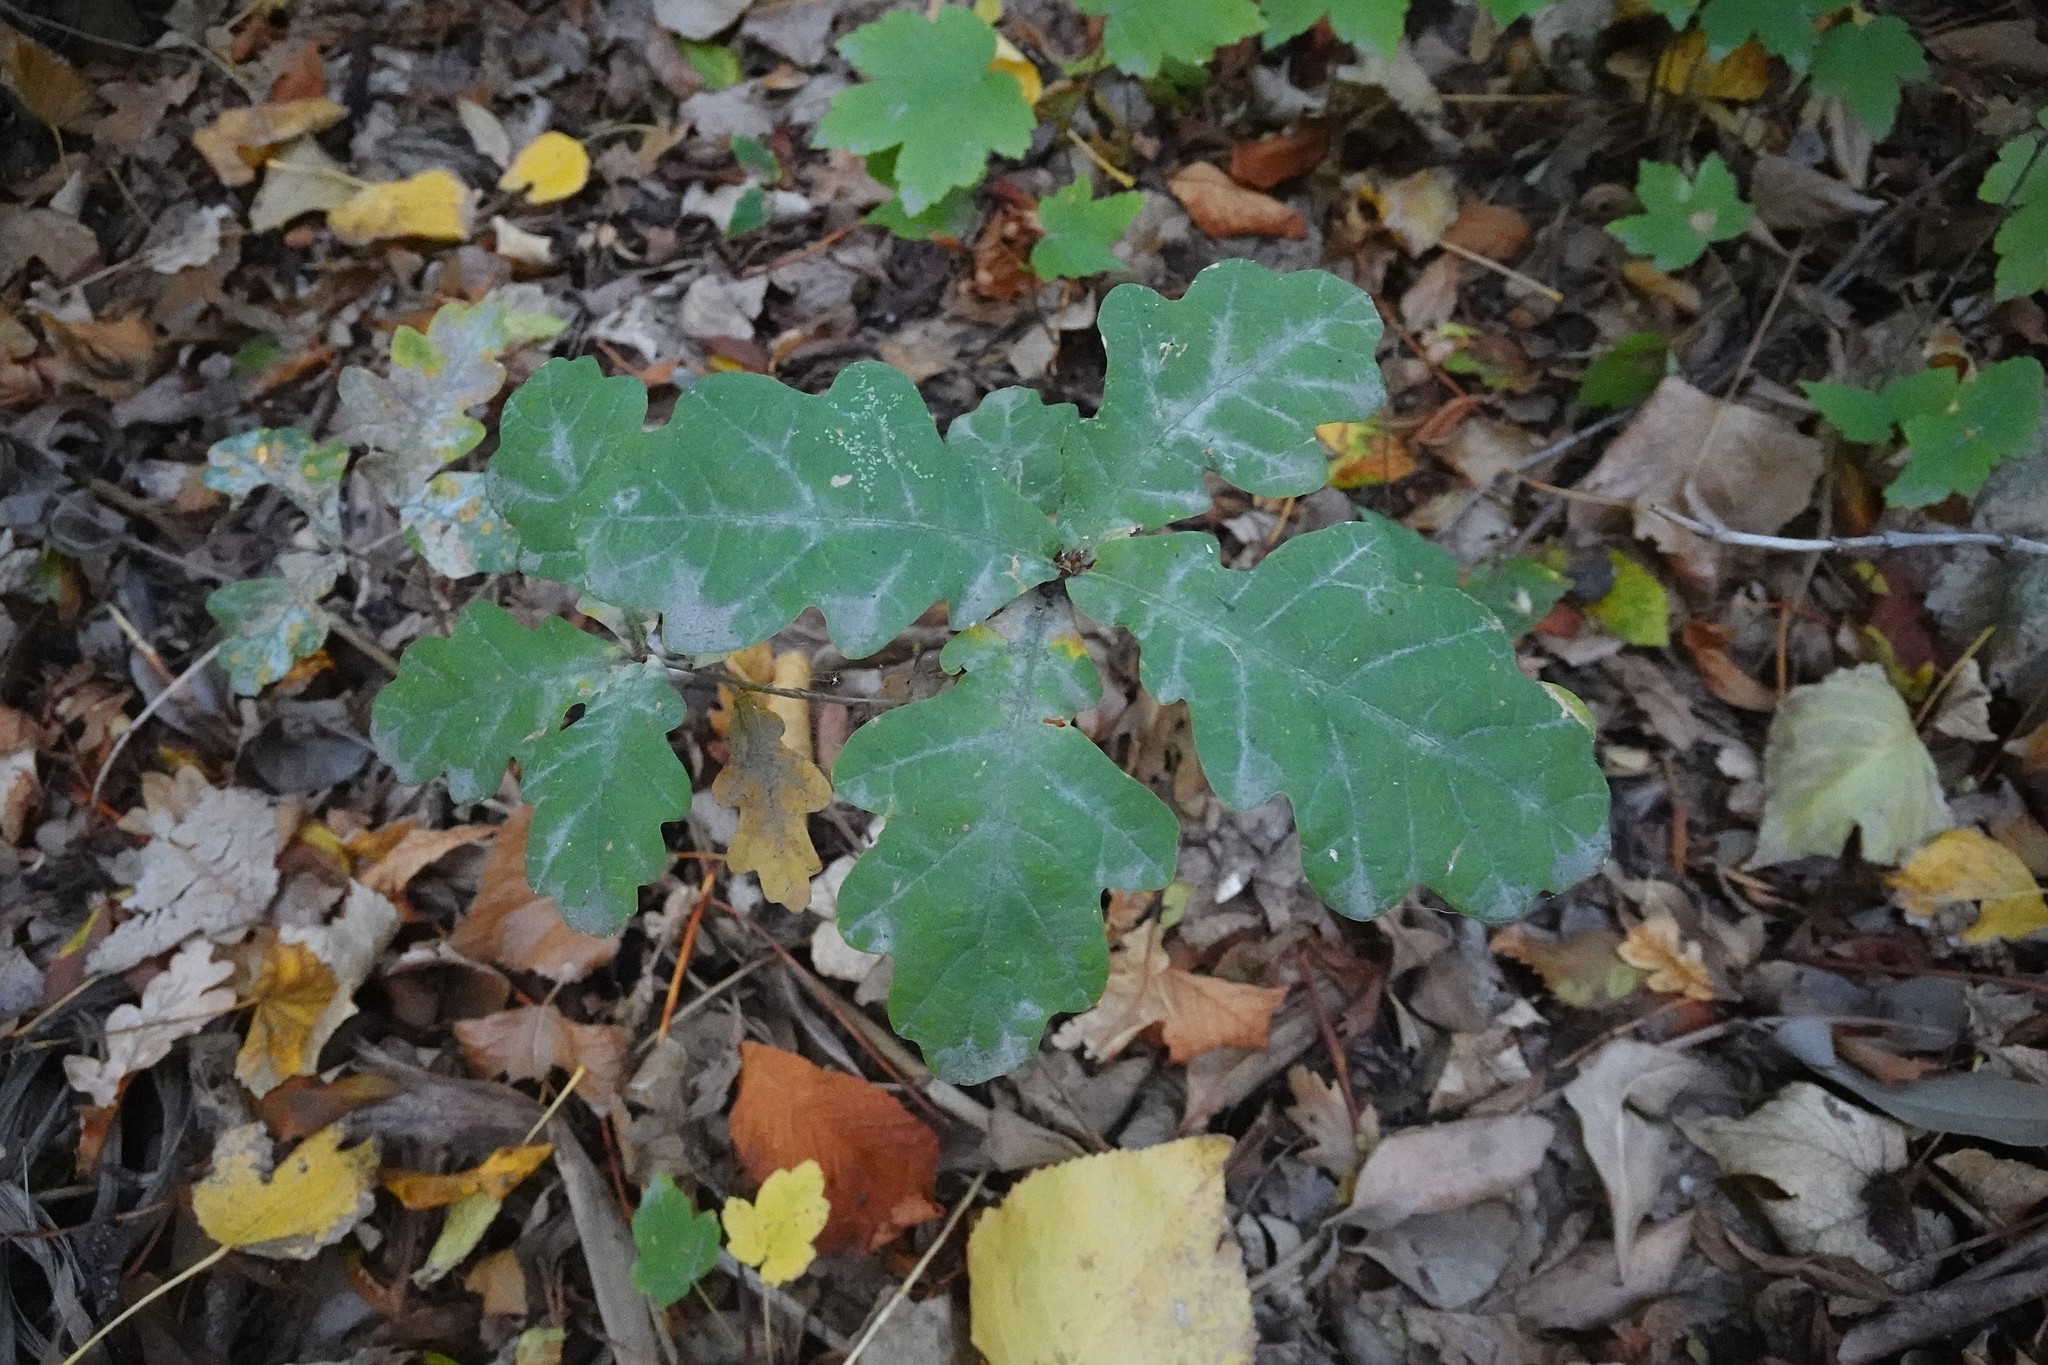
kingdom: Fungi
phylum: Ascomycota
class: Leotiomycetes
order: Helotiales
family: Erysiphaceae
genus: Erysiphe
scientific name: Erysiphe alphitoides
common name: Oak mildew
